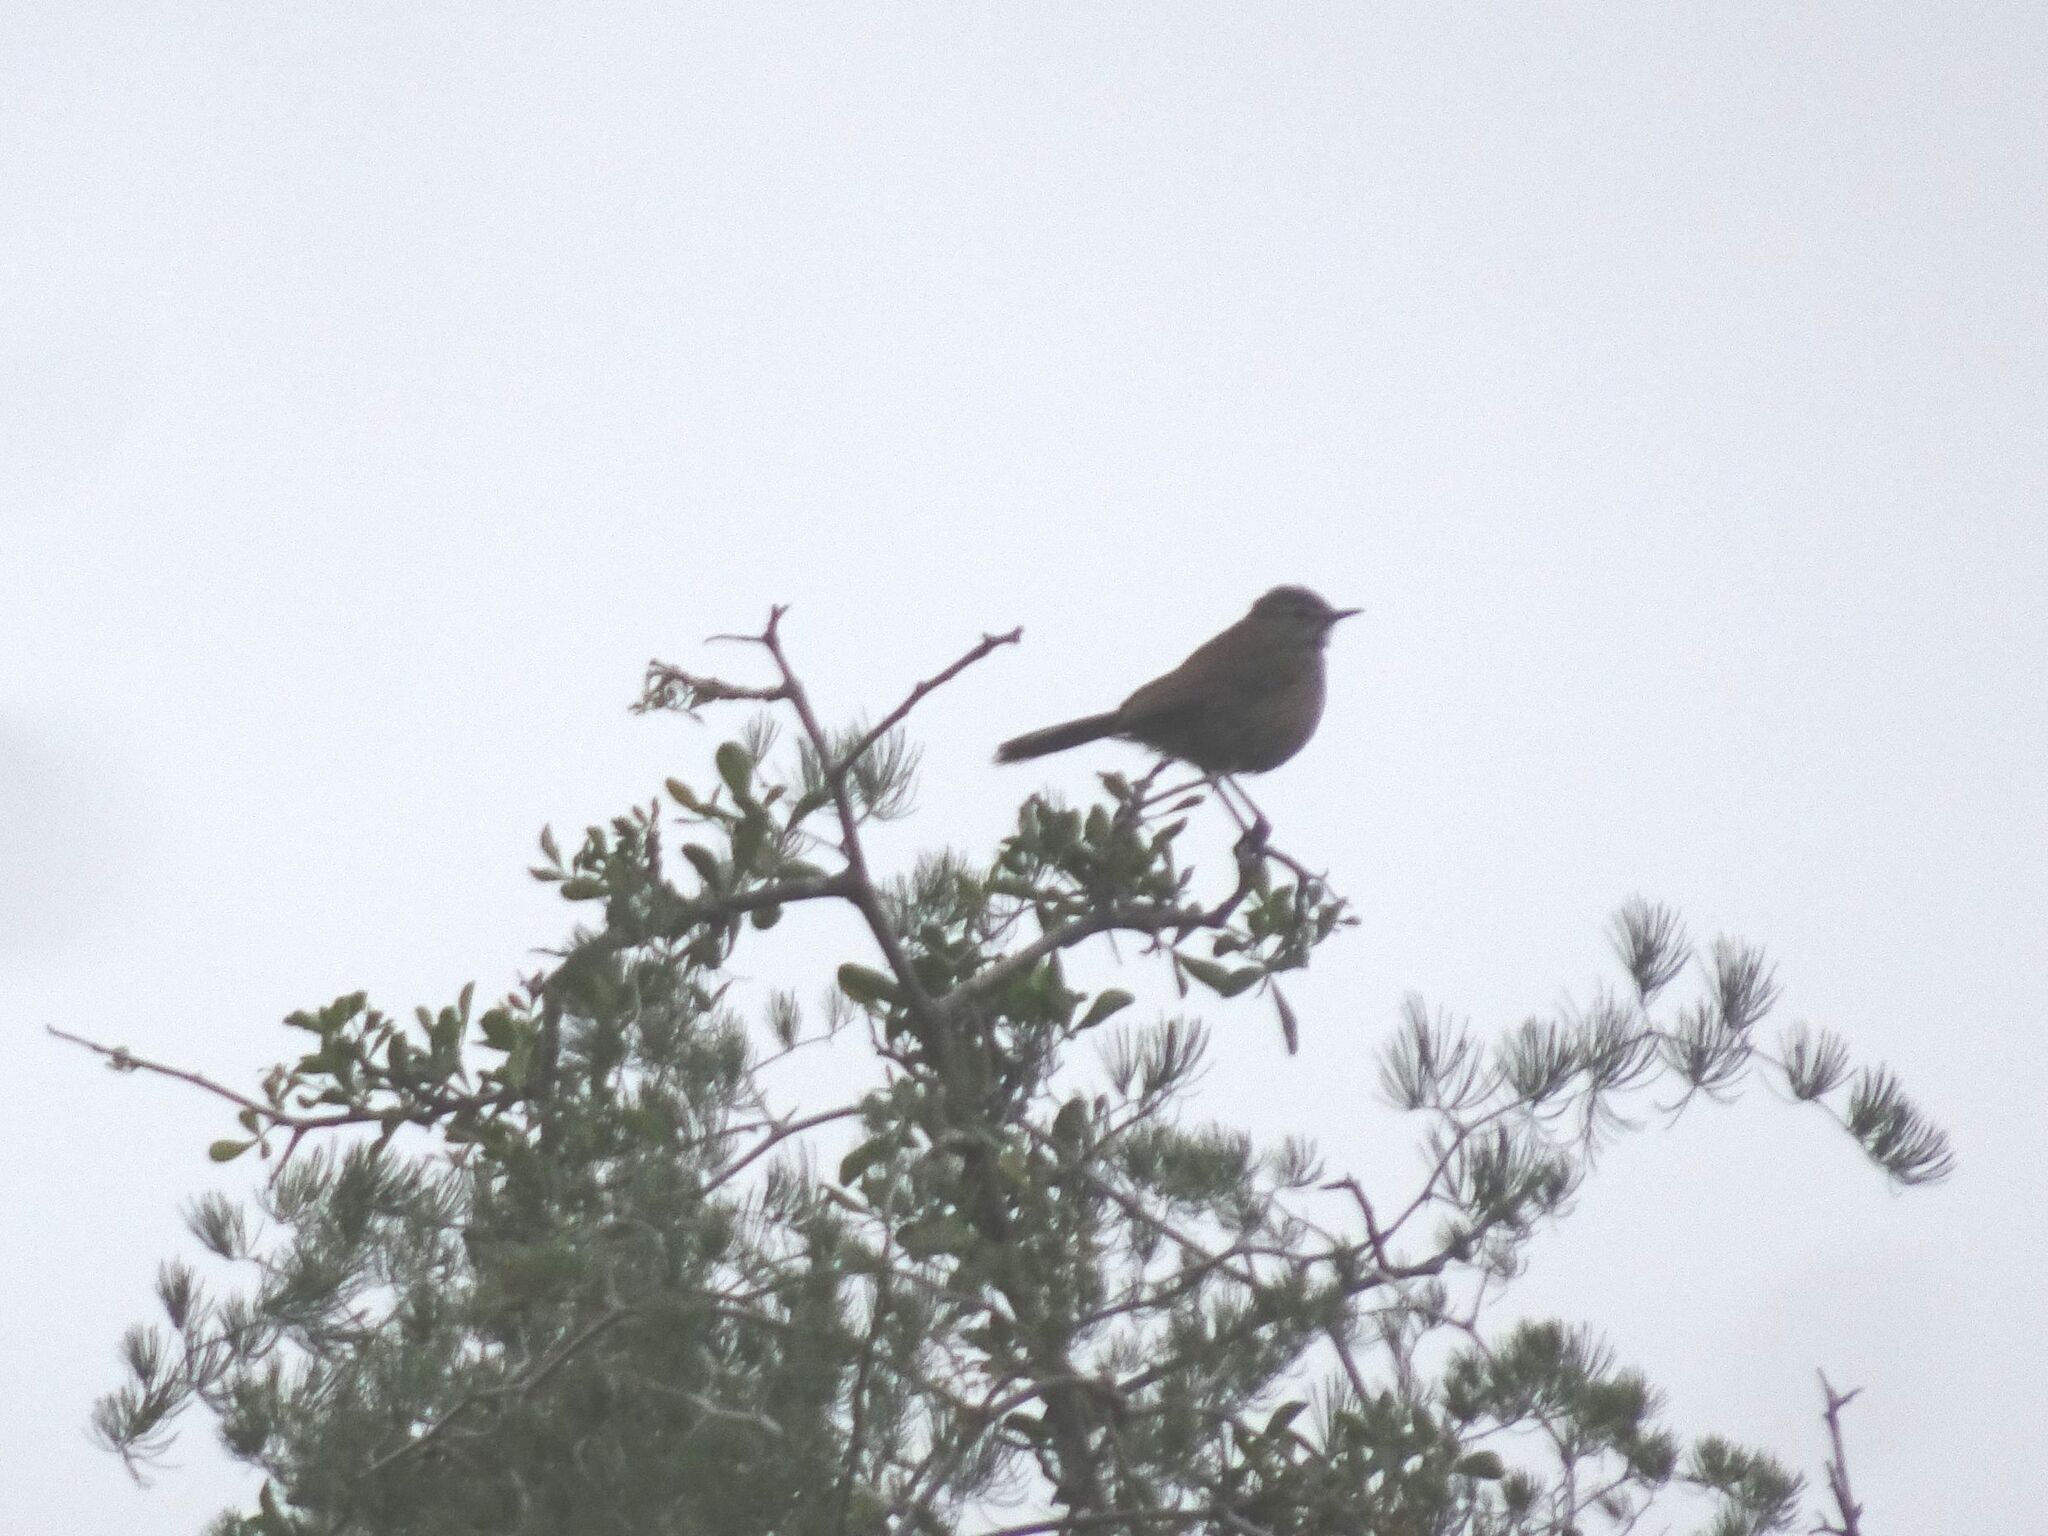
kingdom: Animalia
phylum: Chordata
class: Aves
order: Passeriformes
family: Muscicapidae
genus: Erythropygia
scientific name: Erythropygia coryphoeus
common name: Karoo scrub robin
